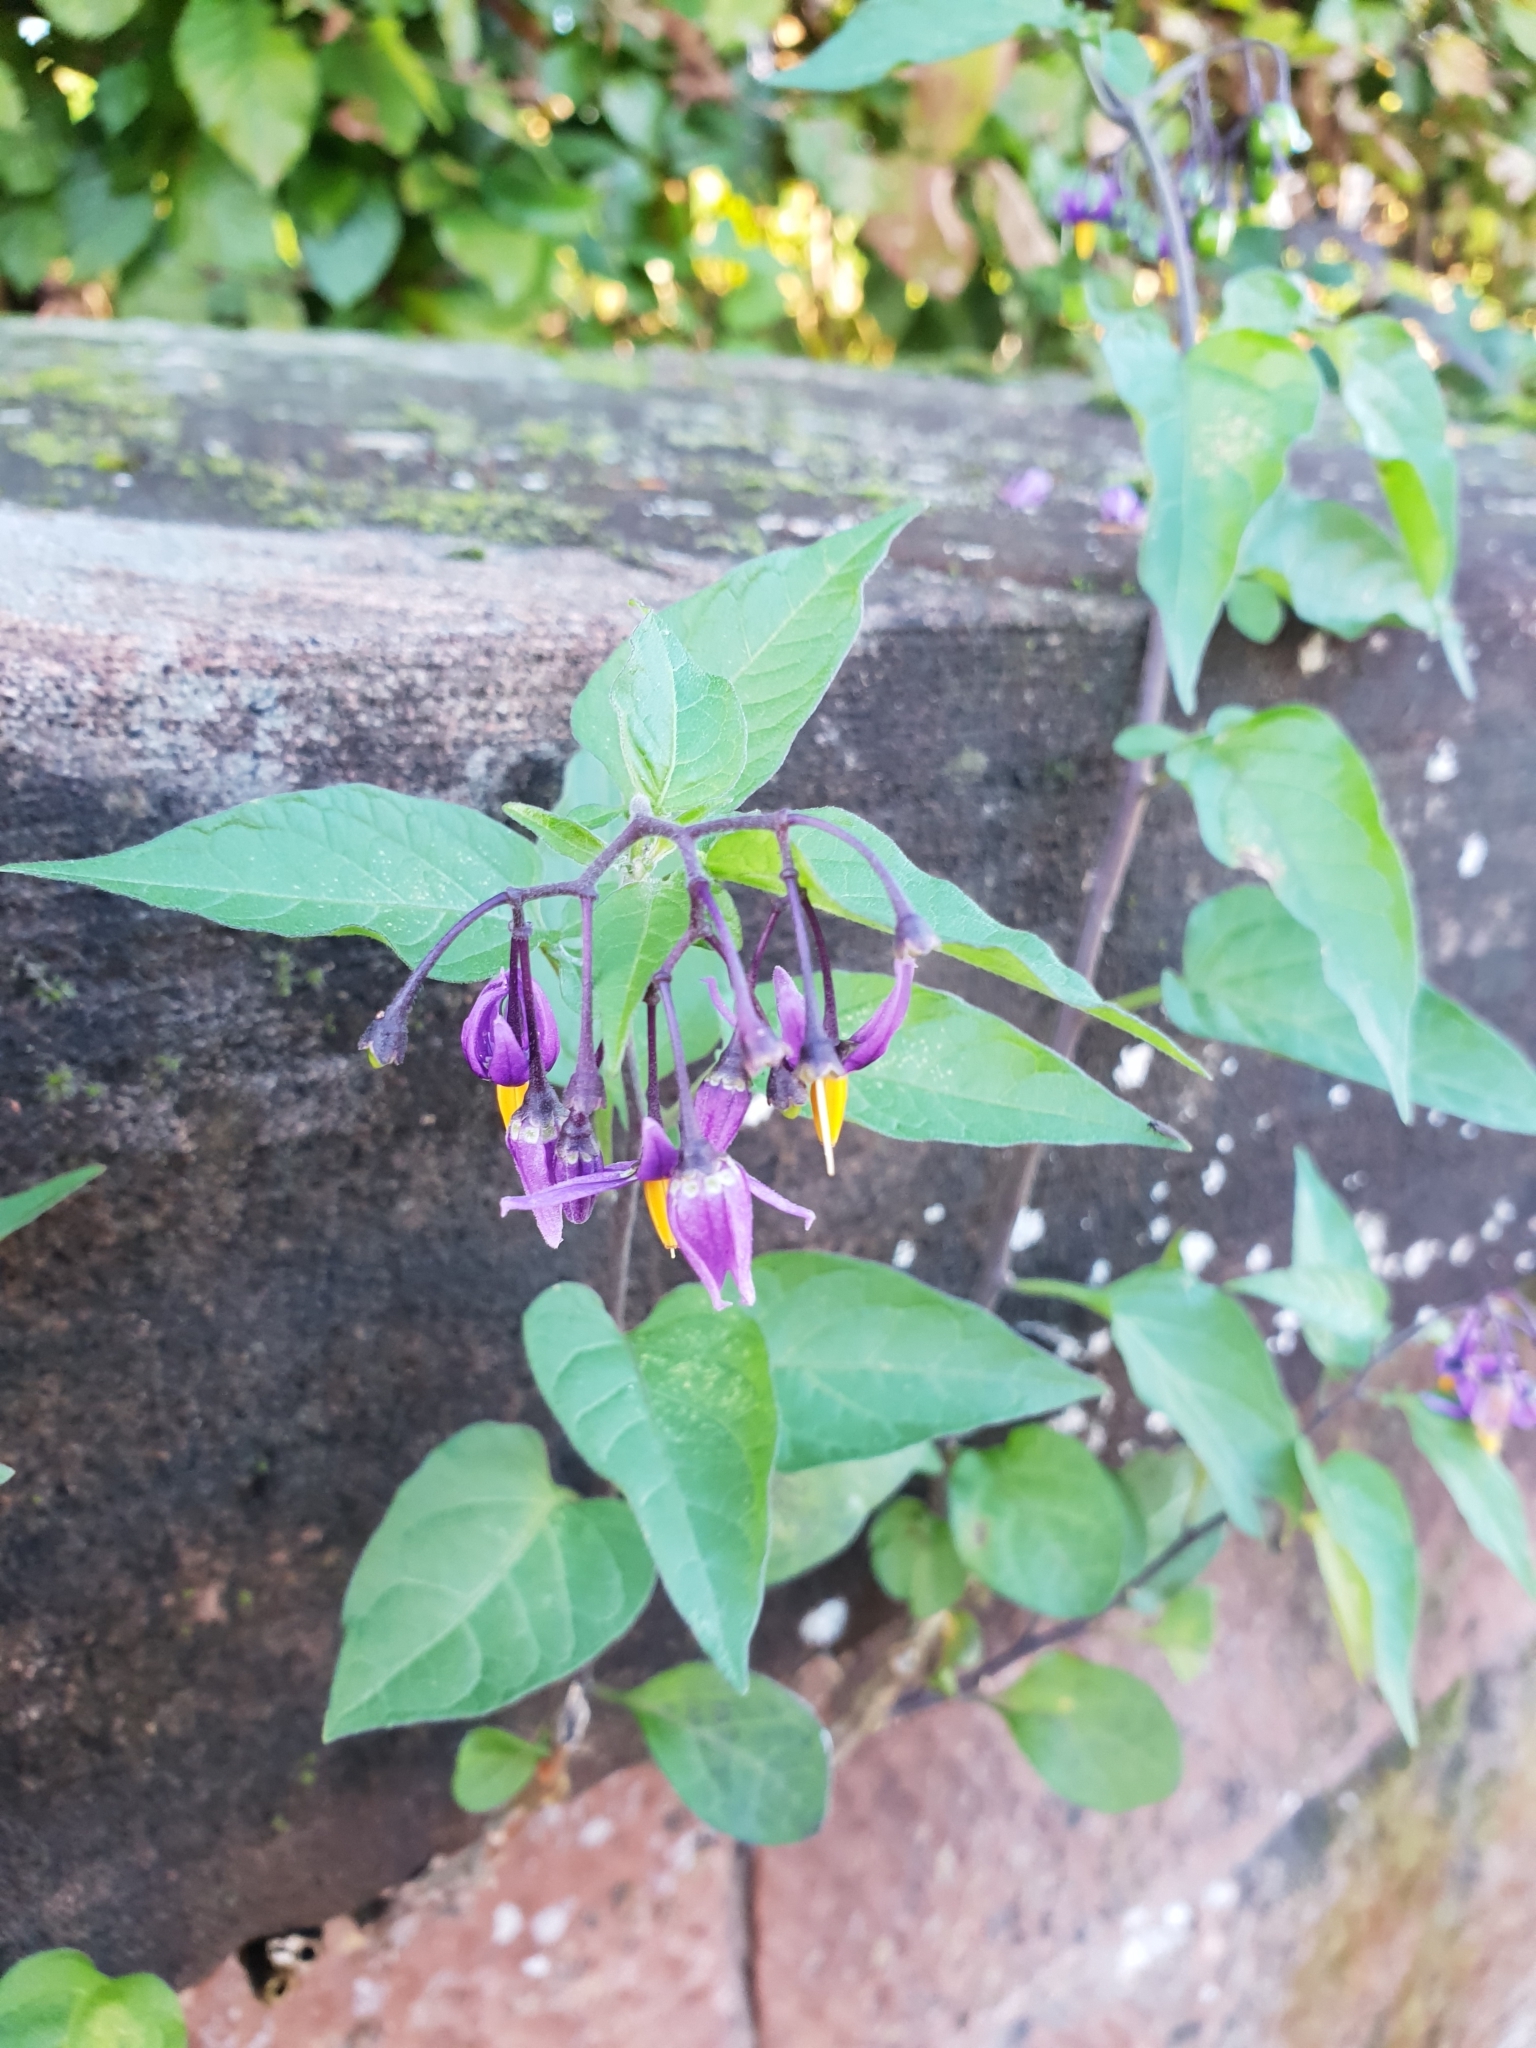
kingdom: Plantae
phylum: Tracheophyta
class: Magnoliopsida
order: Solanales
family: Solanaceae
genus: Solanum
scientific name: Solanum dulcamara
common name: Climbing nightshade
